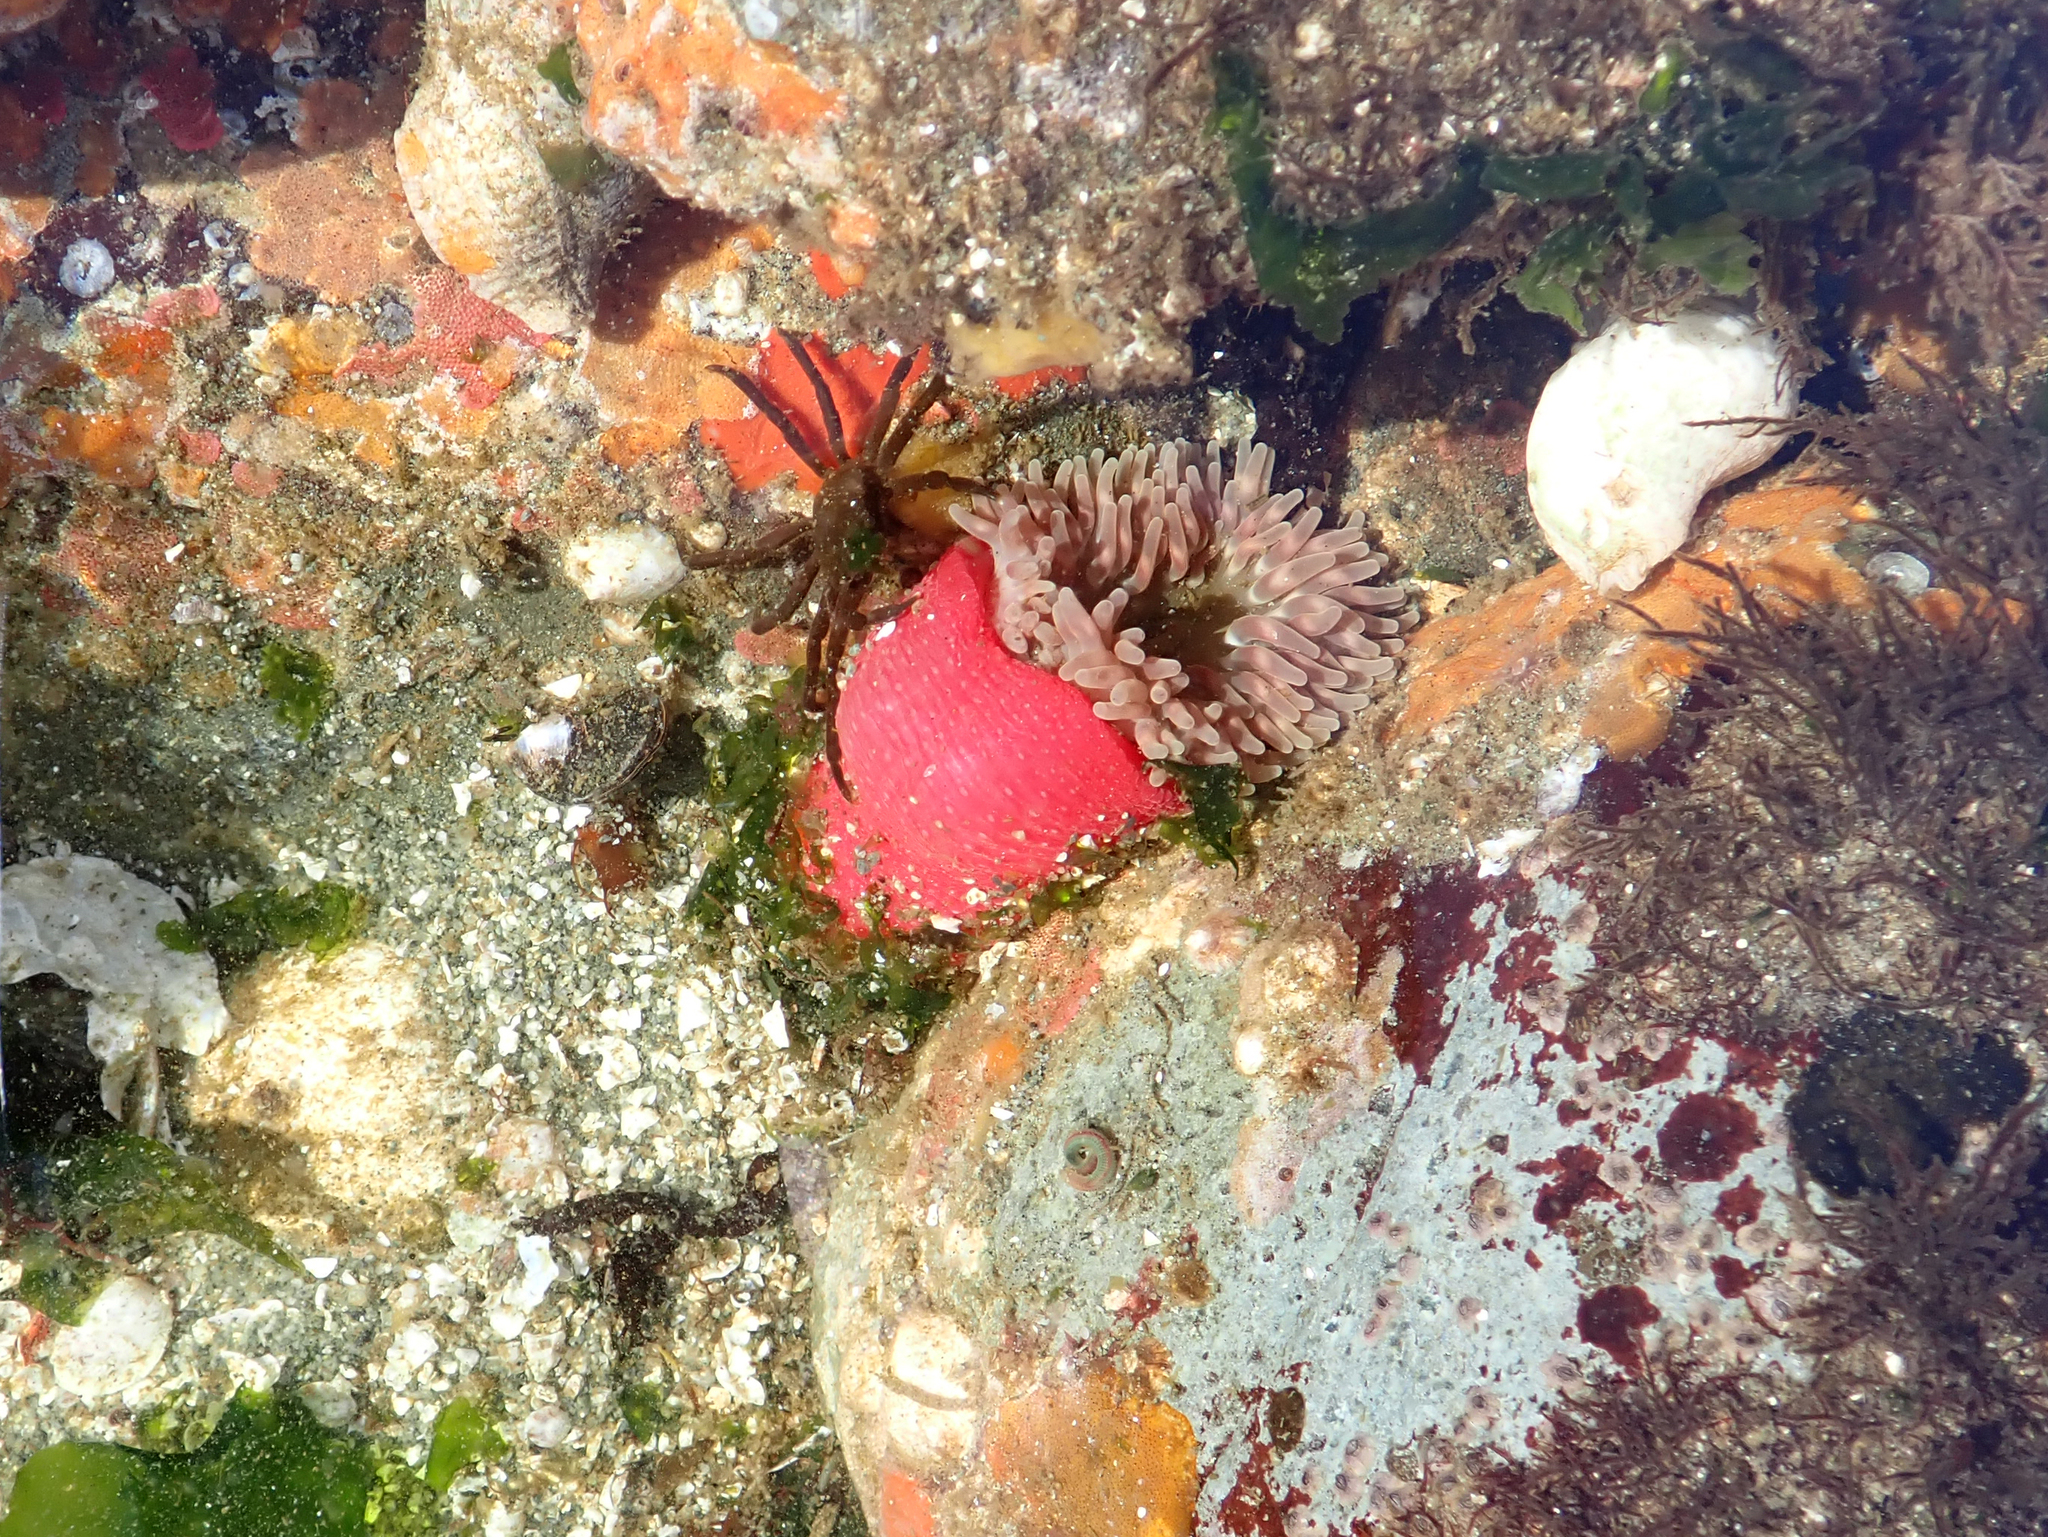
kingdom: Animalia
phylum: Cnidaria
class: Anthozoa
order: Actiniaria
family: Actiniidae
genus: Urticina
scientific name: Urticina clandestina
